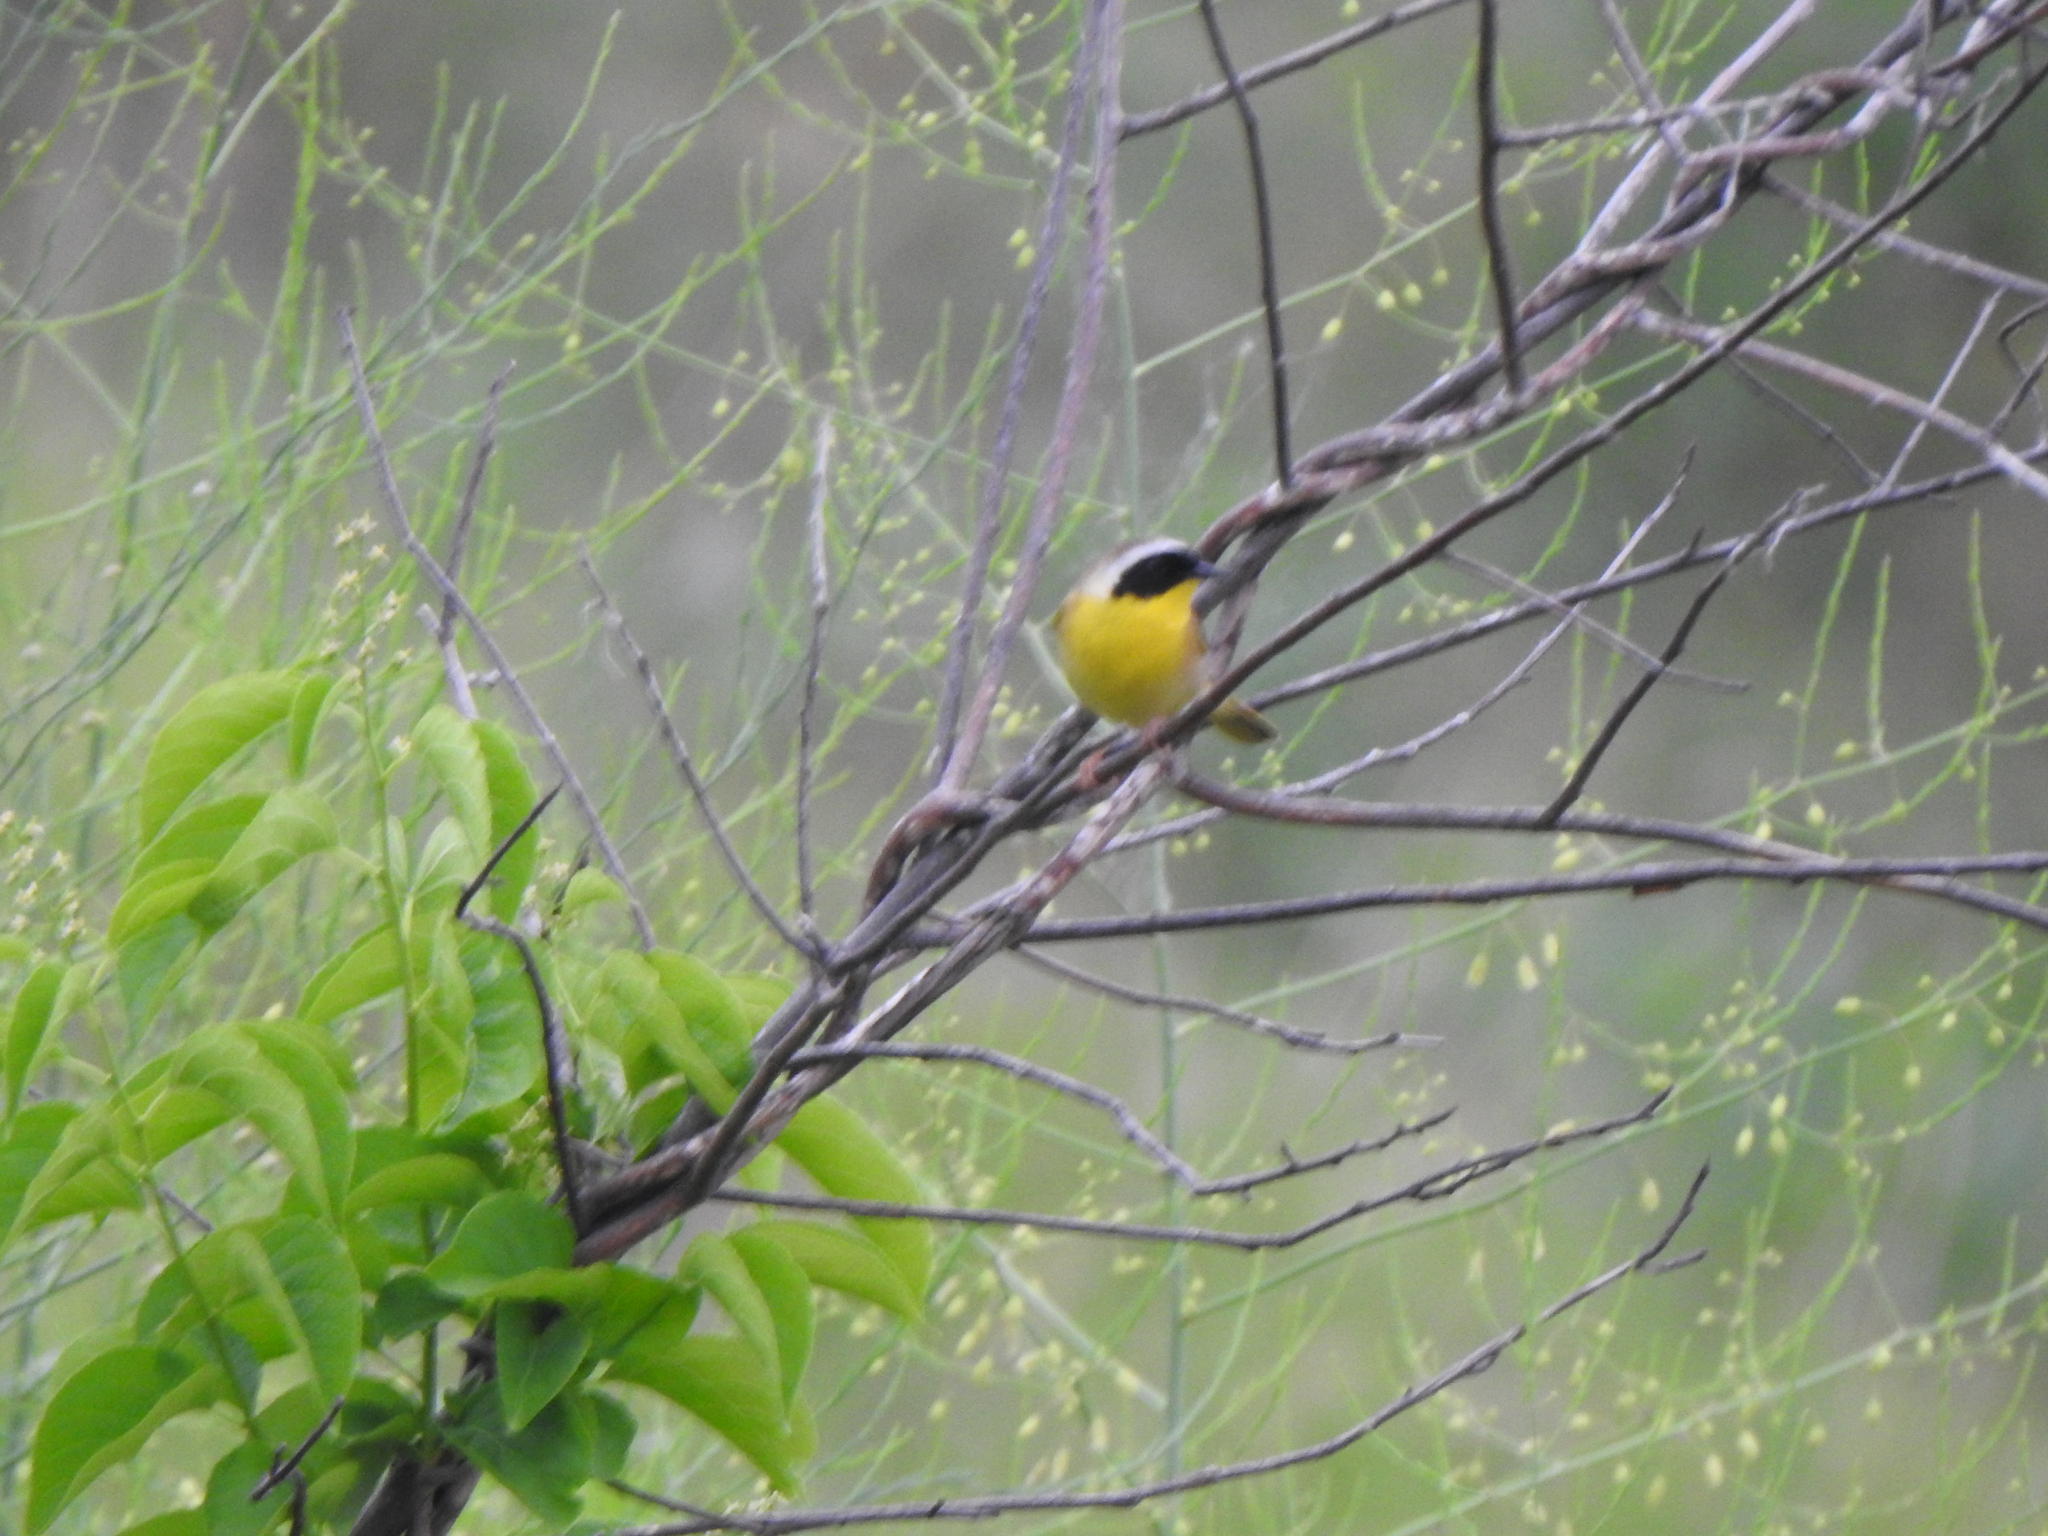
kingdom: Animalia
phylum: Chordata
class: Aves
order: Passeriformes
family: Parulidae
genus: Geothlypis
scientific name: Geothlypis trichas
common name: Common yellowthroat
